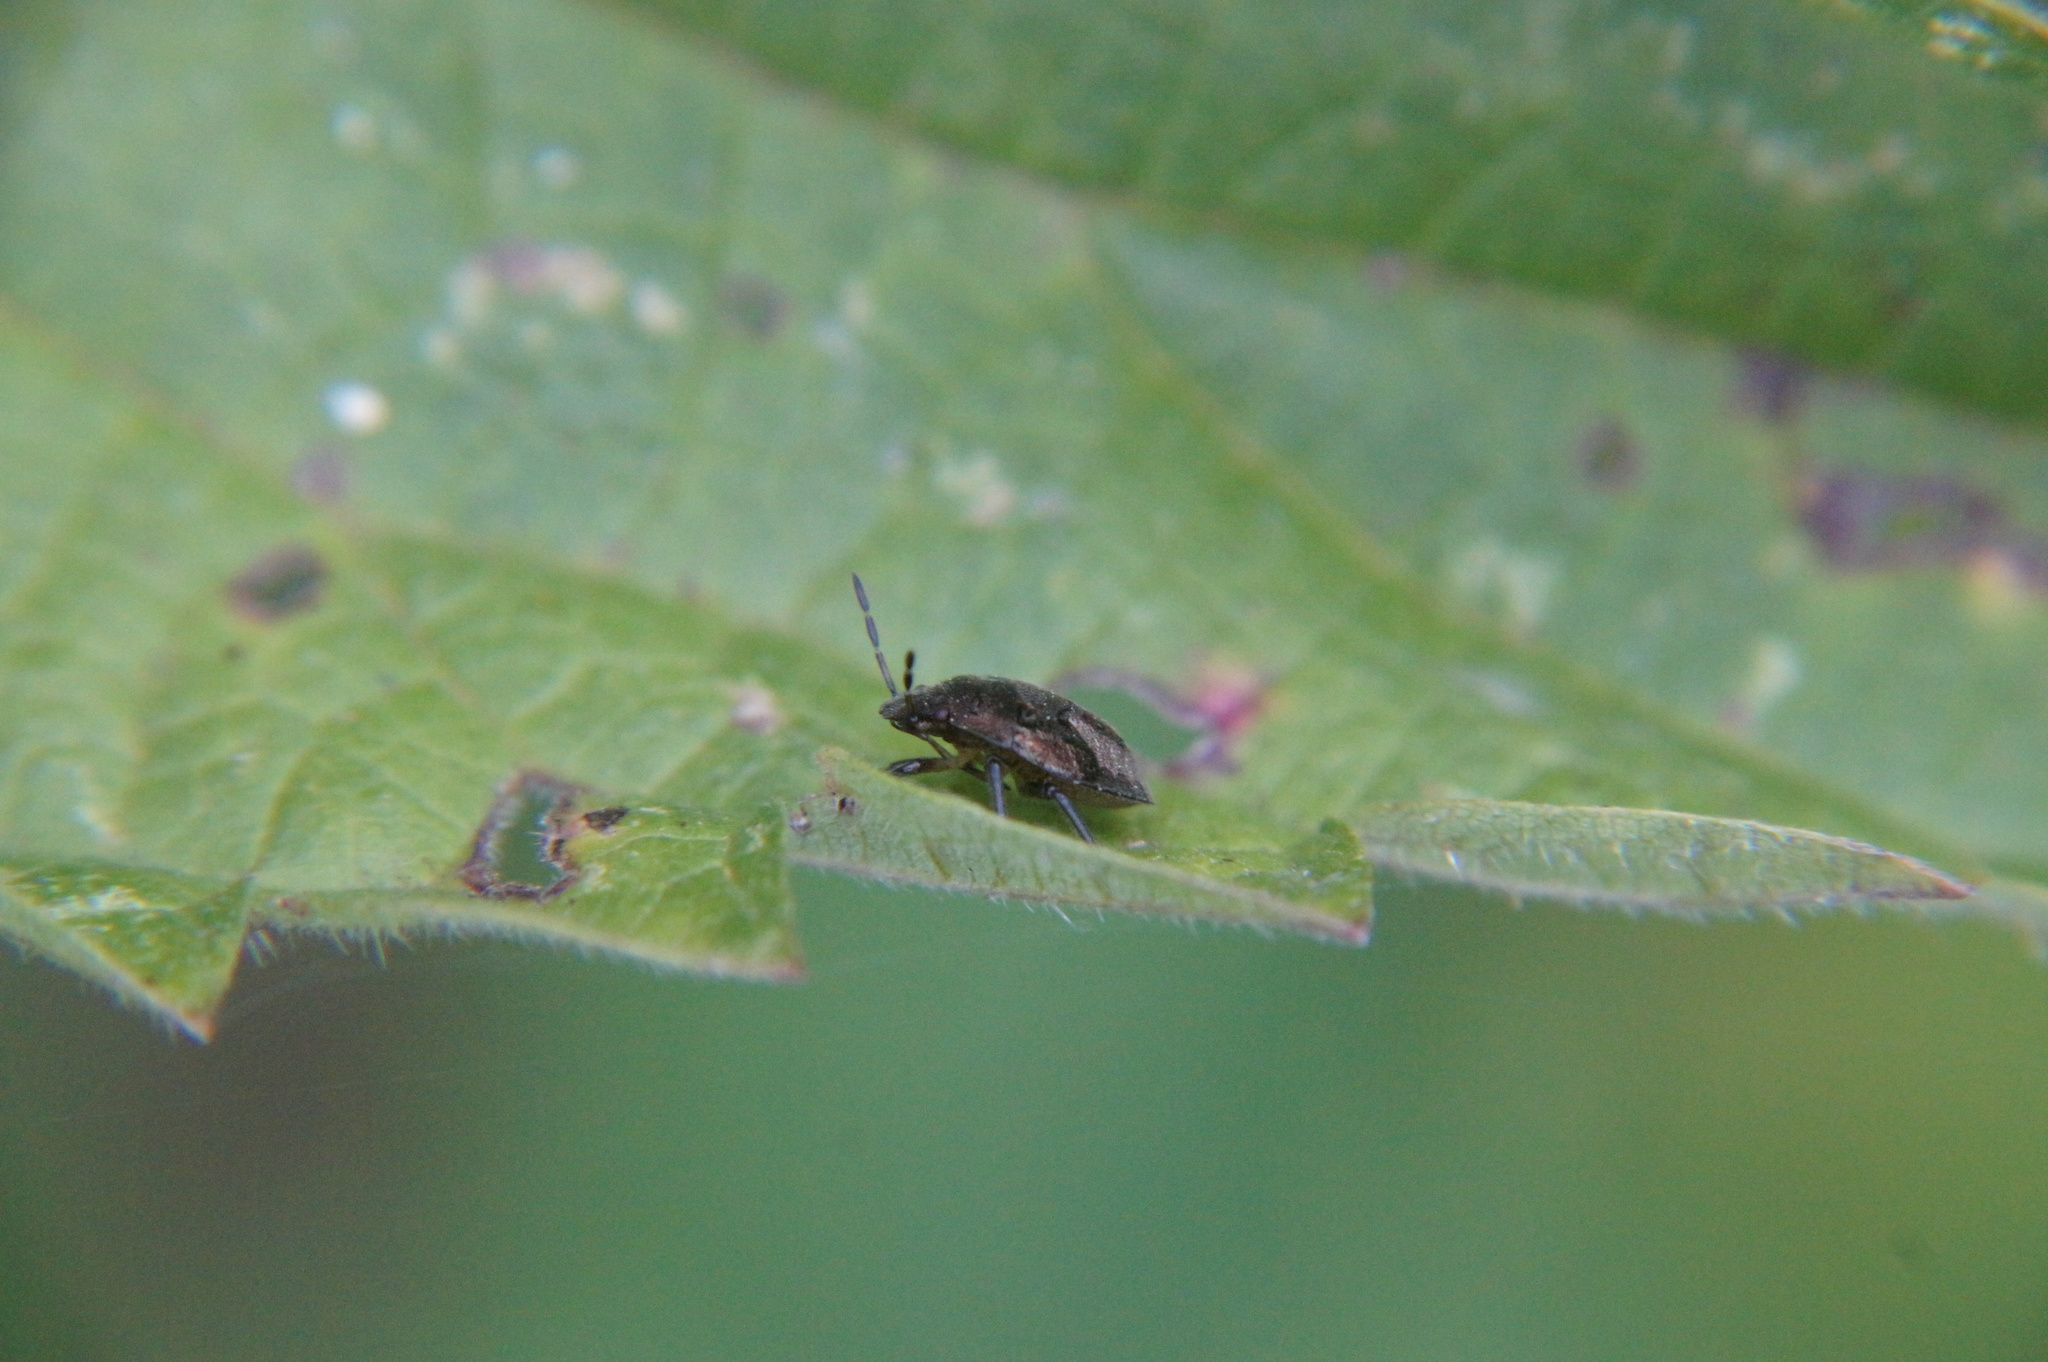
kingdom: Animalia
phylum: Arthropoda
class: Insecta
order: Hemiptera
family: Pentatomidae
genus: Holcostethus
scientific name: Holcostethus strictus
